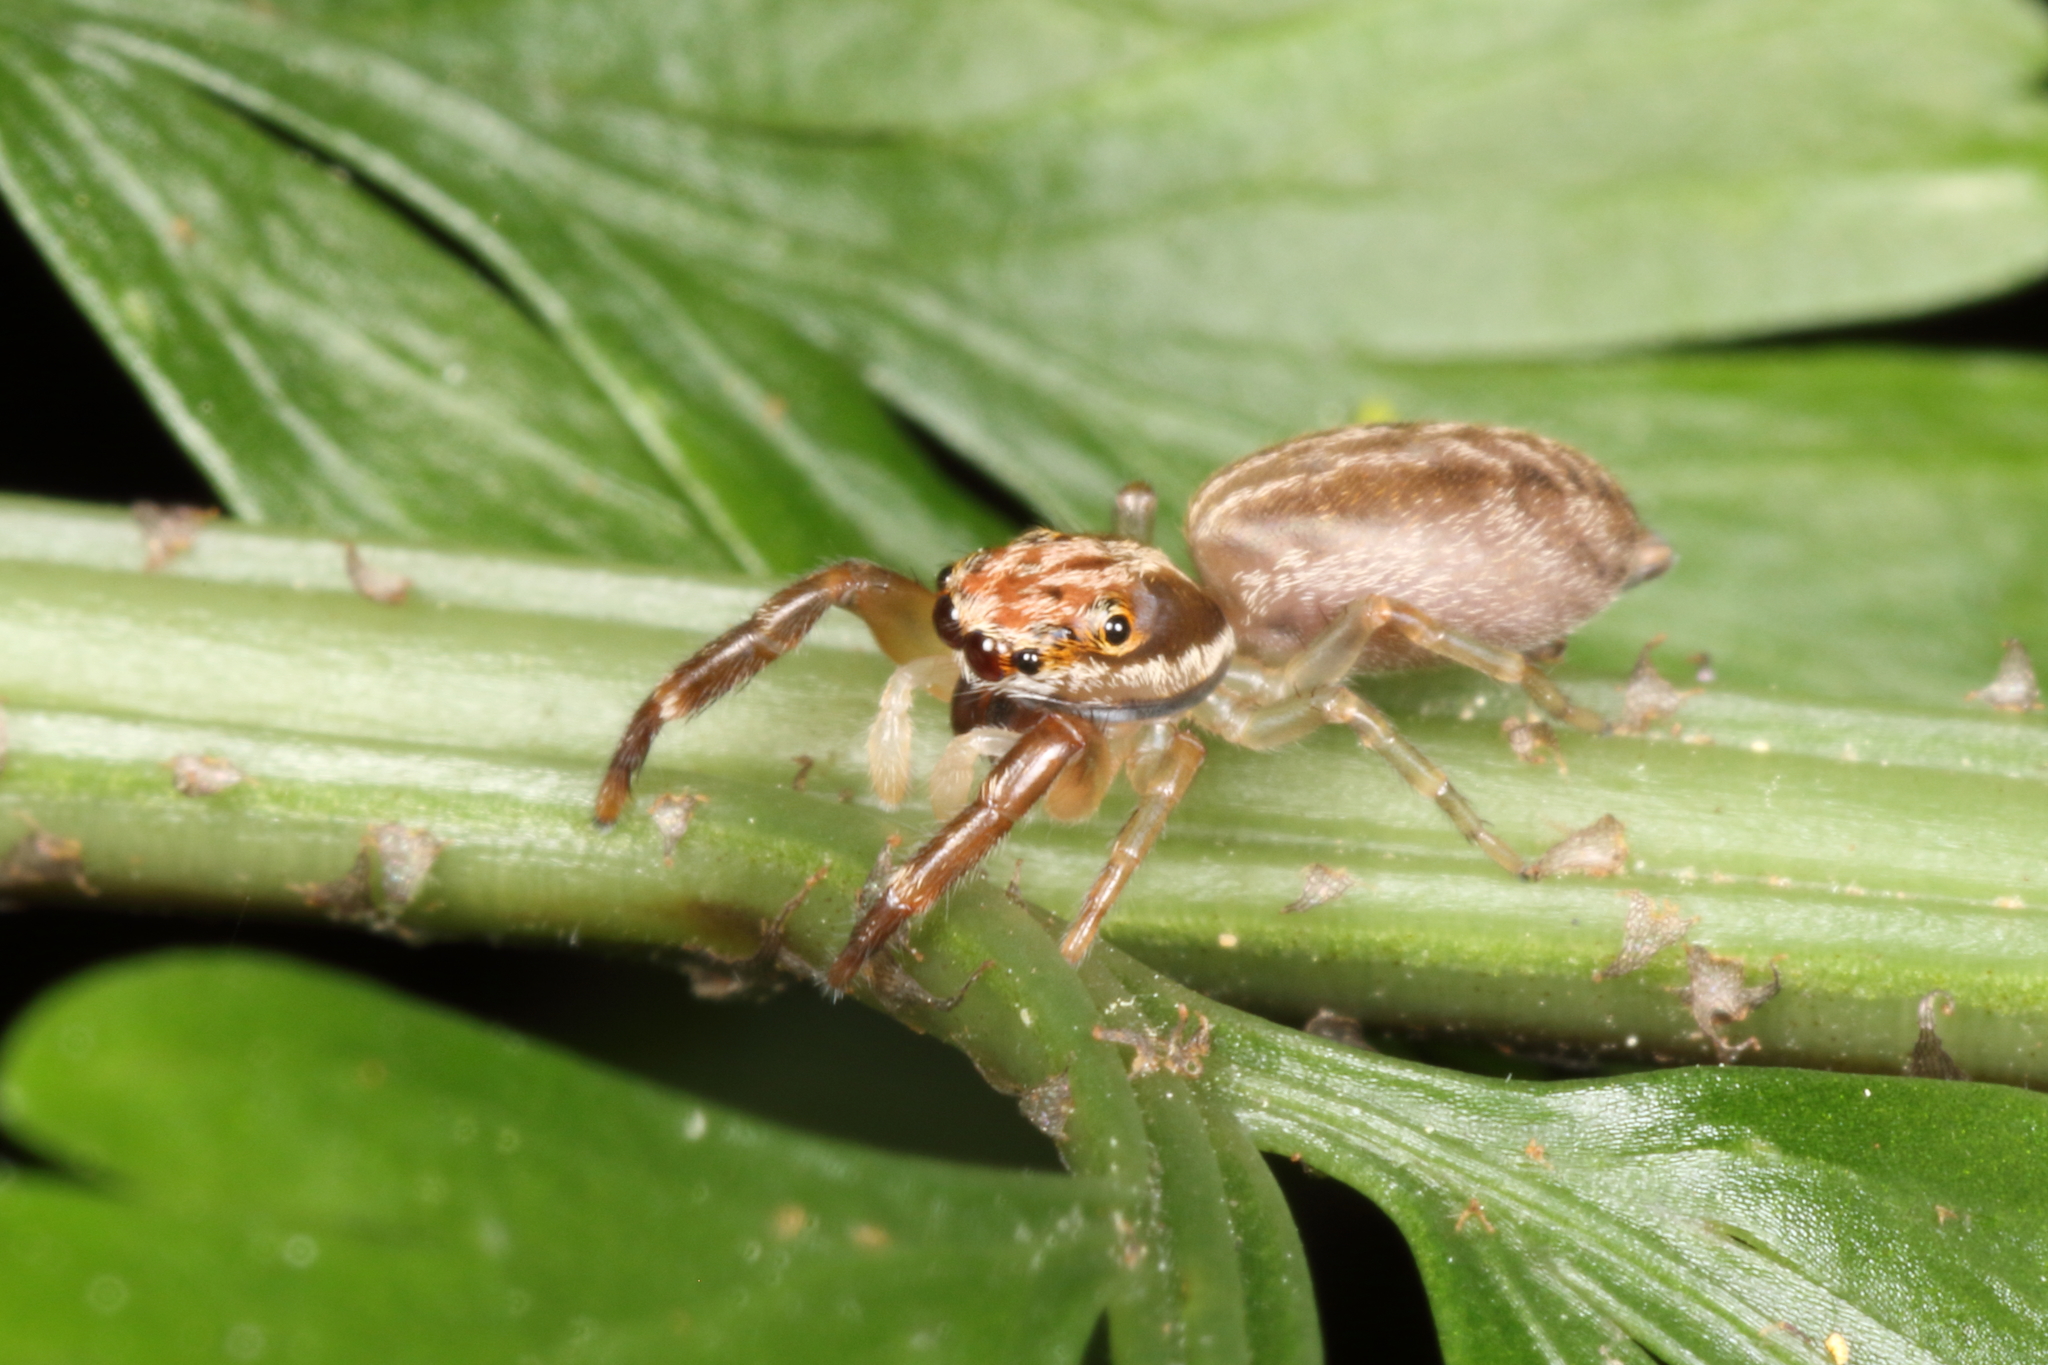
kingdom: Animalia
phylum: Arthropoda
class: Arachnida
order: Araneae
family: Salticidae
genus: Trite
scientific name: Trite mustilina
